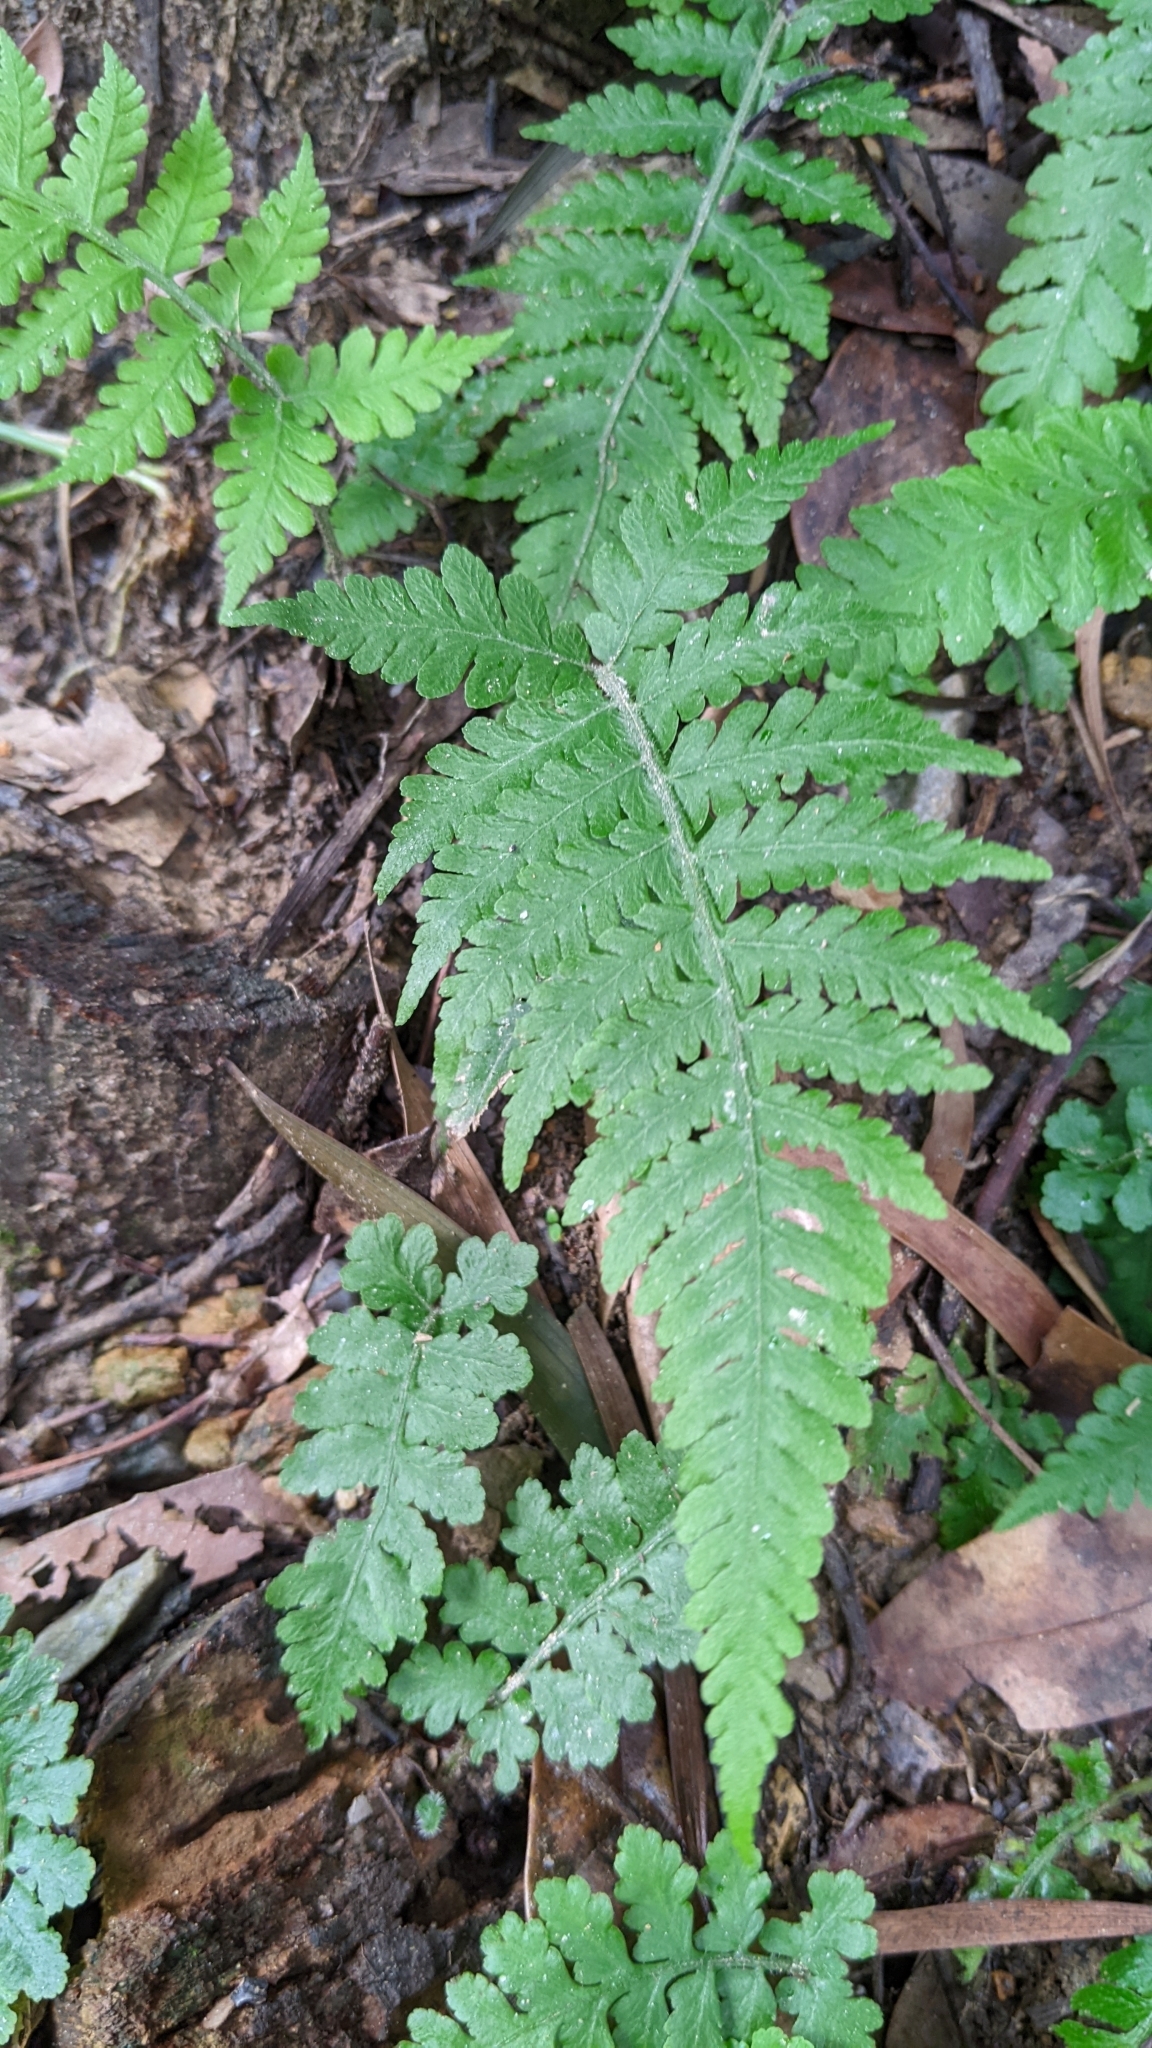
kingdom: Plantae
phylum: Tracheophyta
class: Polypodiopsida
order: Polypodiales
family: Athyriaceae
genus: Deparia
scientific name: Deparia petersenii
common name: Japanese false spleenwort
